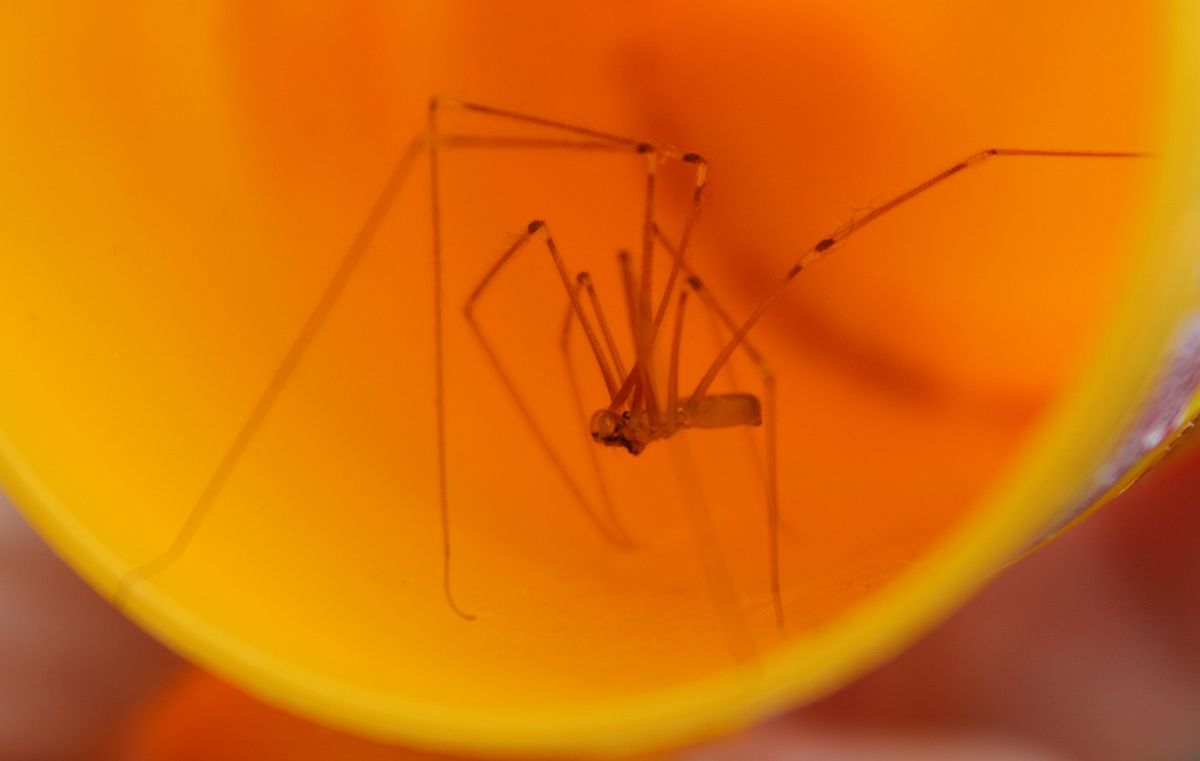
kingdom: Animalia
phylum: Arthropoda
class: Arachnida
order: Araneae
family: Pholcidae
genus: Pholcus
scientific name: Pholcus phalangioides
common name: Longbodied cellar spider
